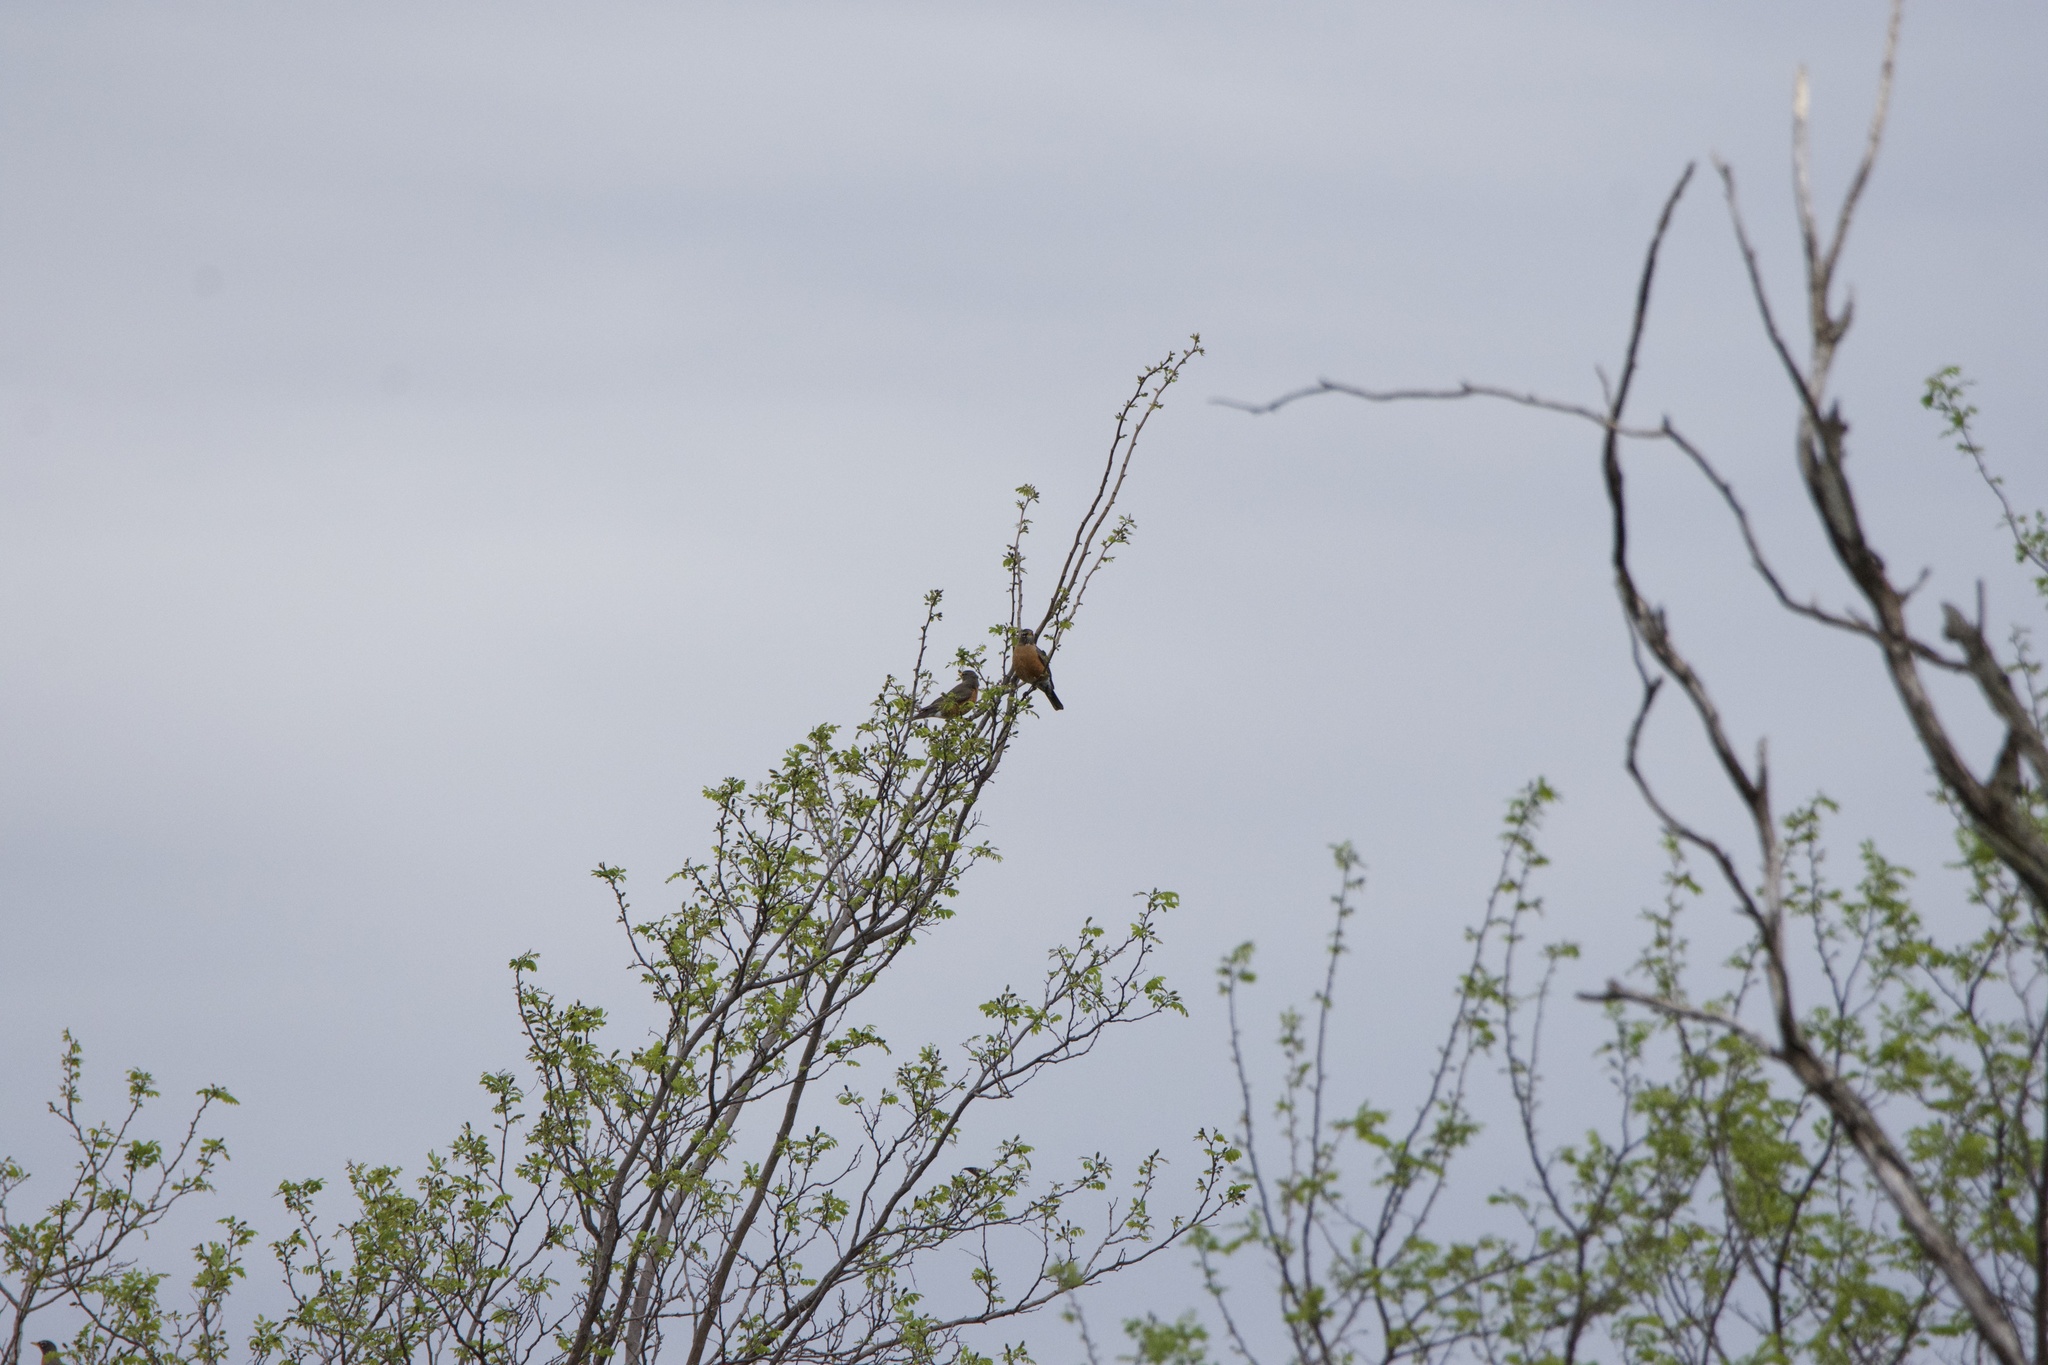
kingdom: Animalia
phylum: Chordata
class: Aves
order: Passeriformes
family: Turdidae
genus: Turdus
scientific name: Turdus migratorius
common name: American robin
